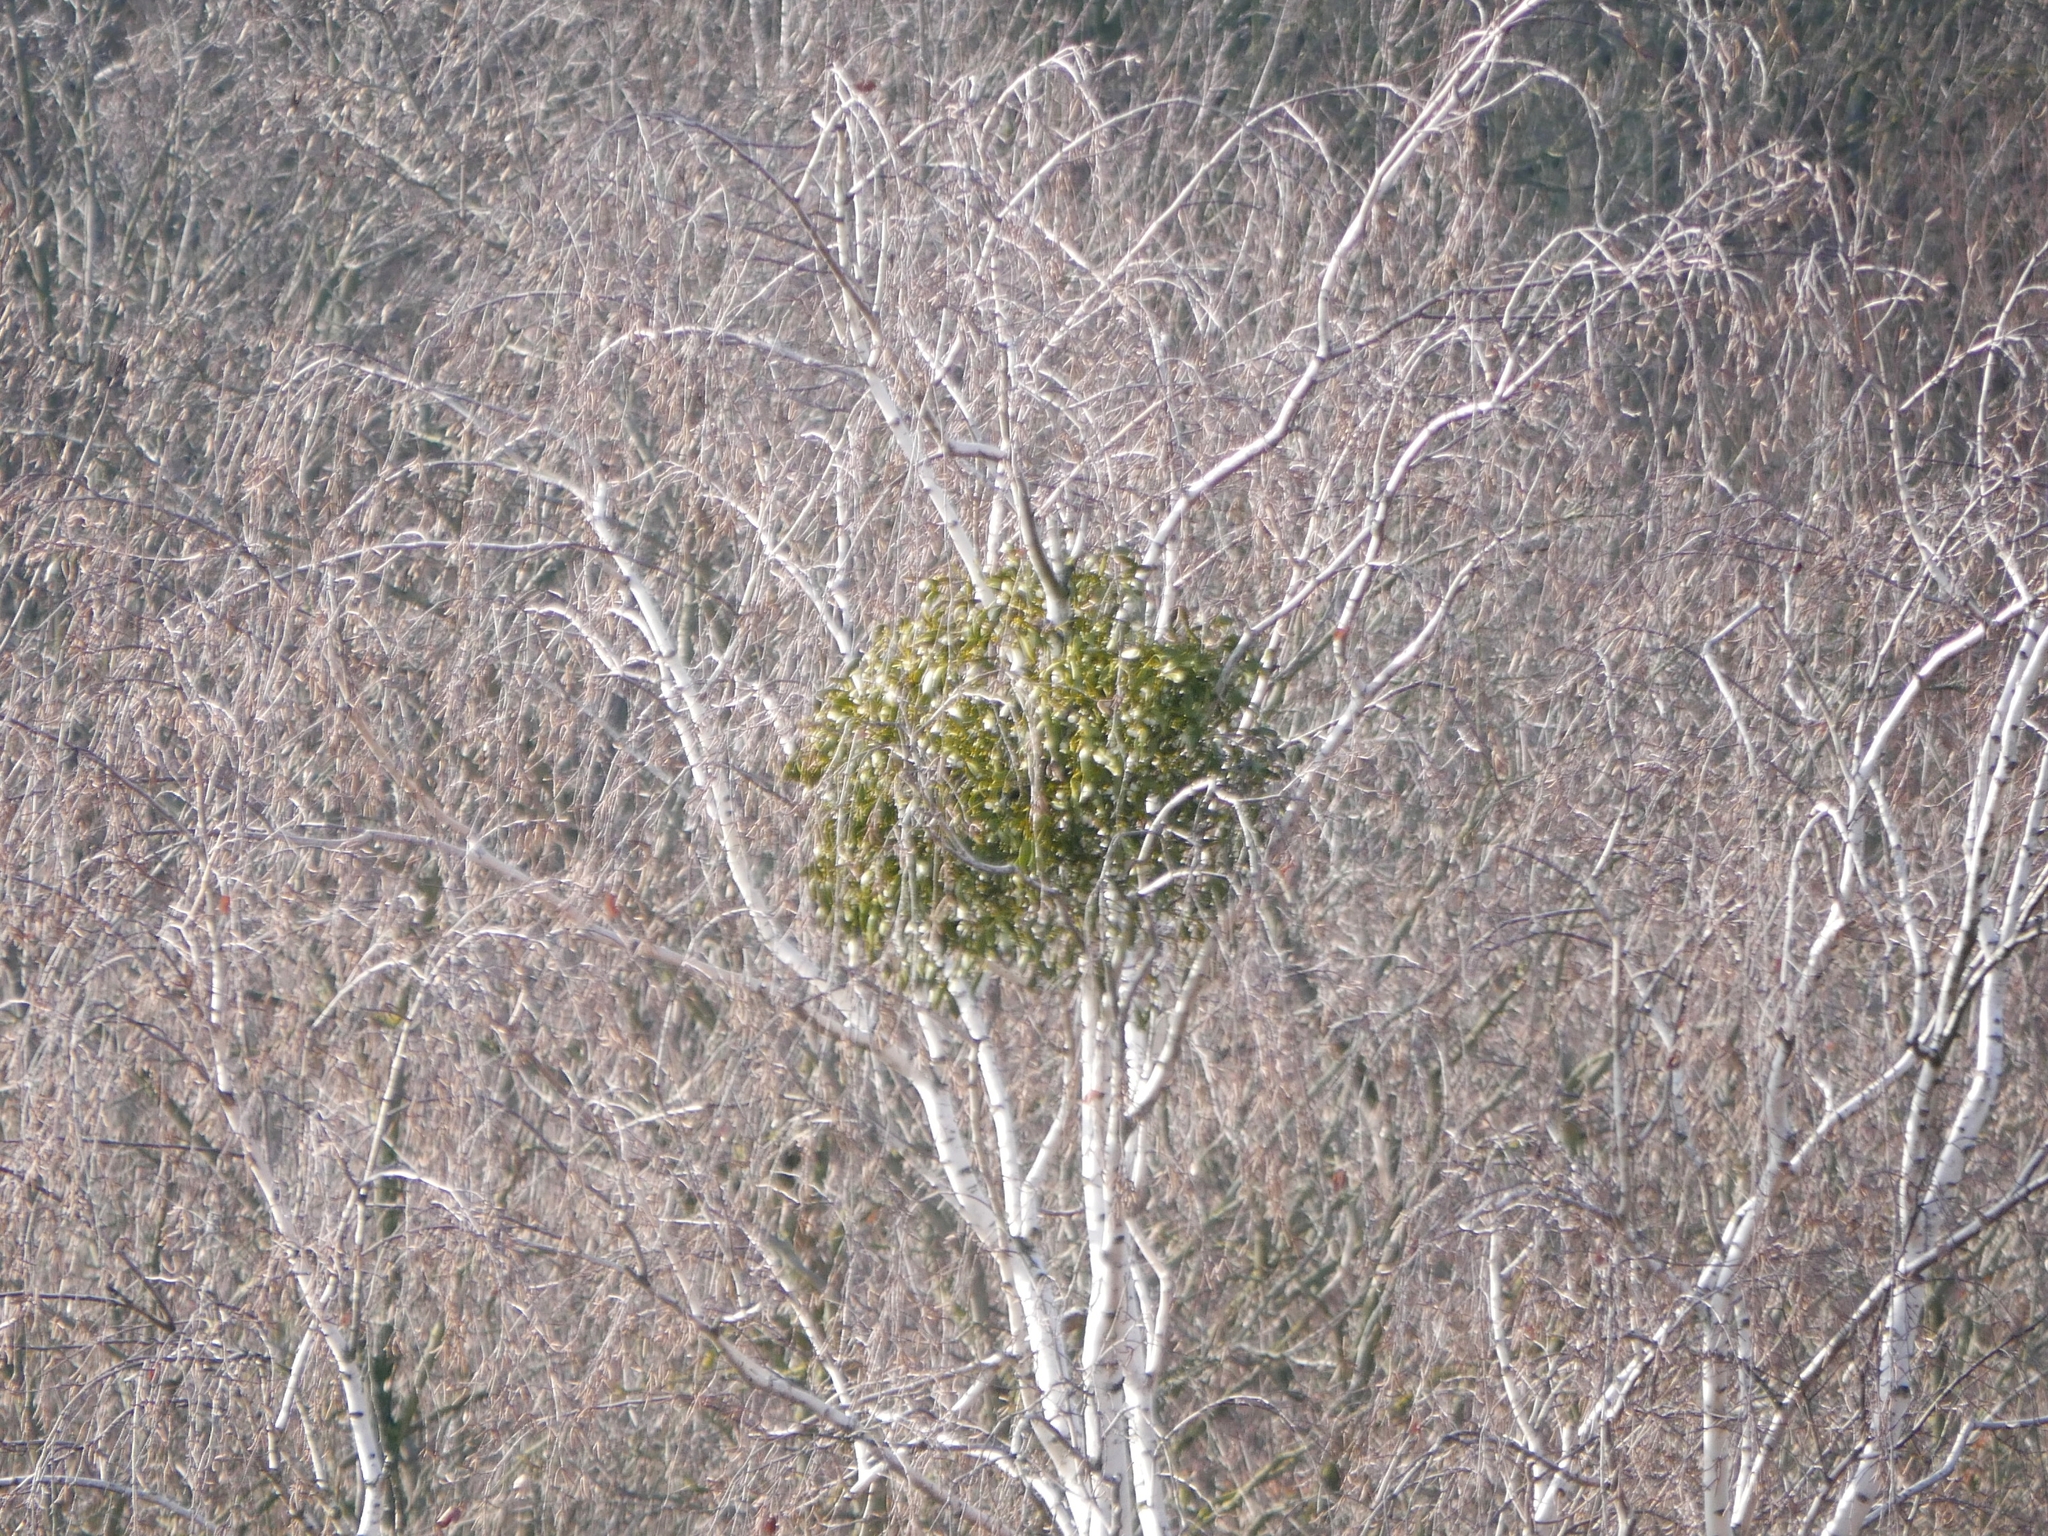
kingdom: Plantae
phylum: Tracheophyta
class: Magnoliopsida
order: Santalales
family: Viscaceae
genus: Viscum
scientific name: Viscum album
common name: Mistletoe
